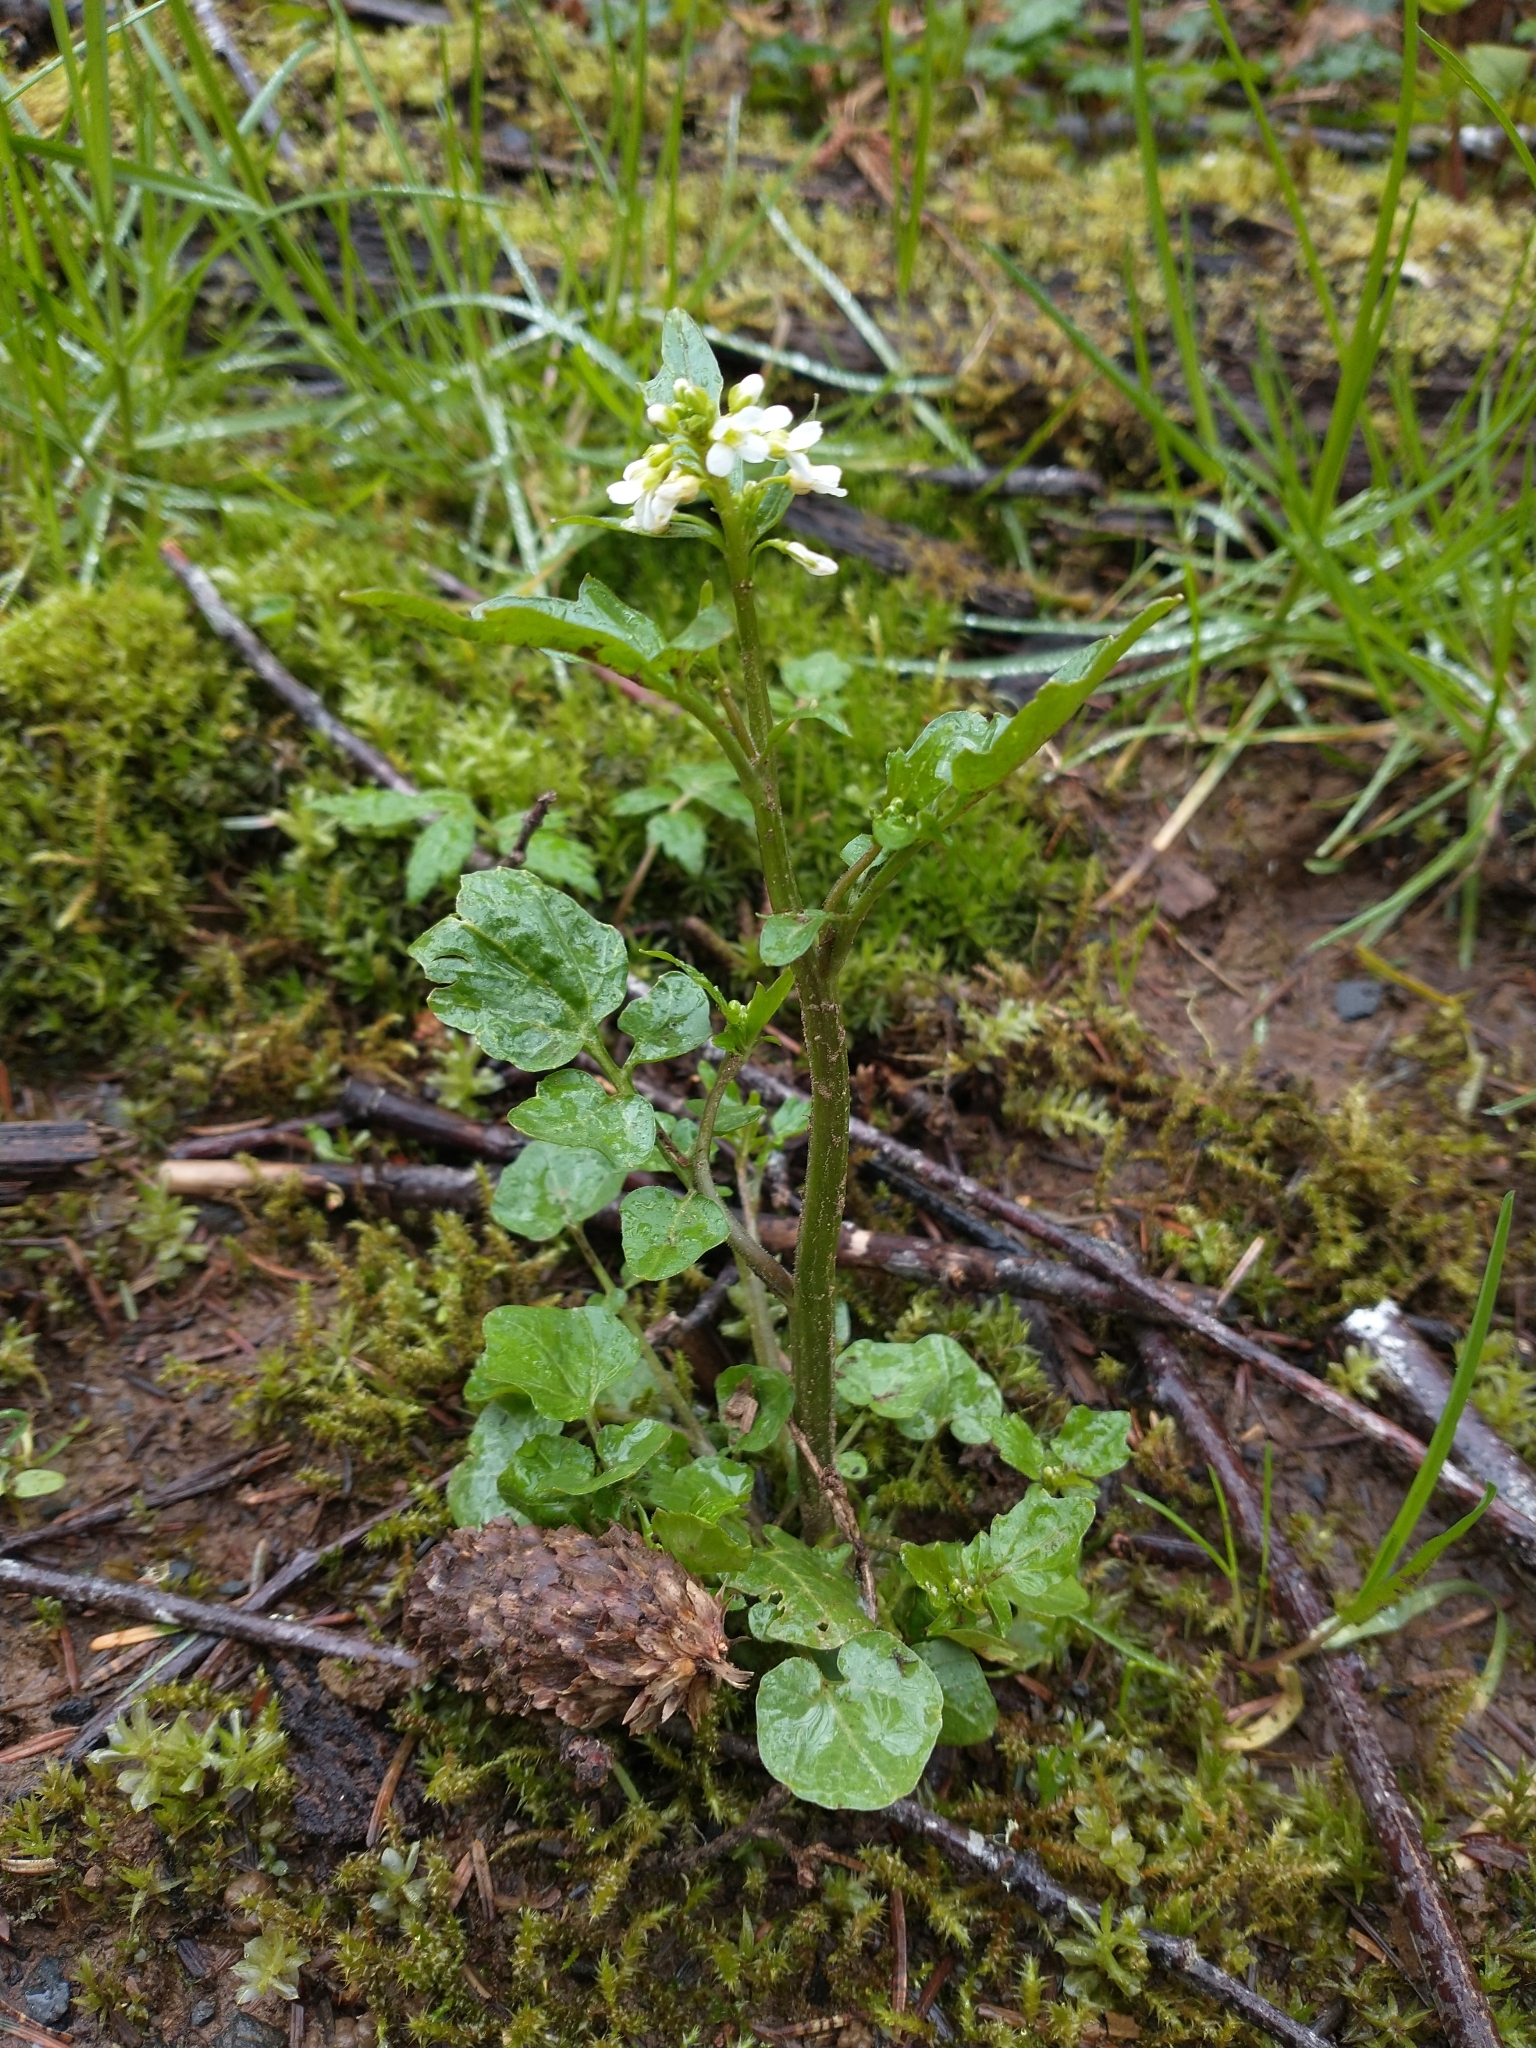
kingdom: Plantae
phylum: Tracheophyta
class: Magnoliopsida
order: Brassicales
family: Brassicaceae
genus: Cardamine
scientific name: Cardamine breweri
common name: Brewer's bittercress
